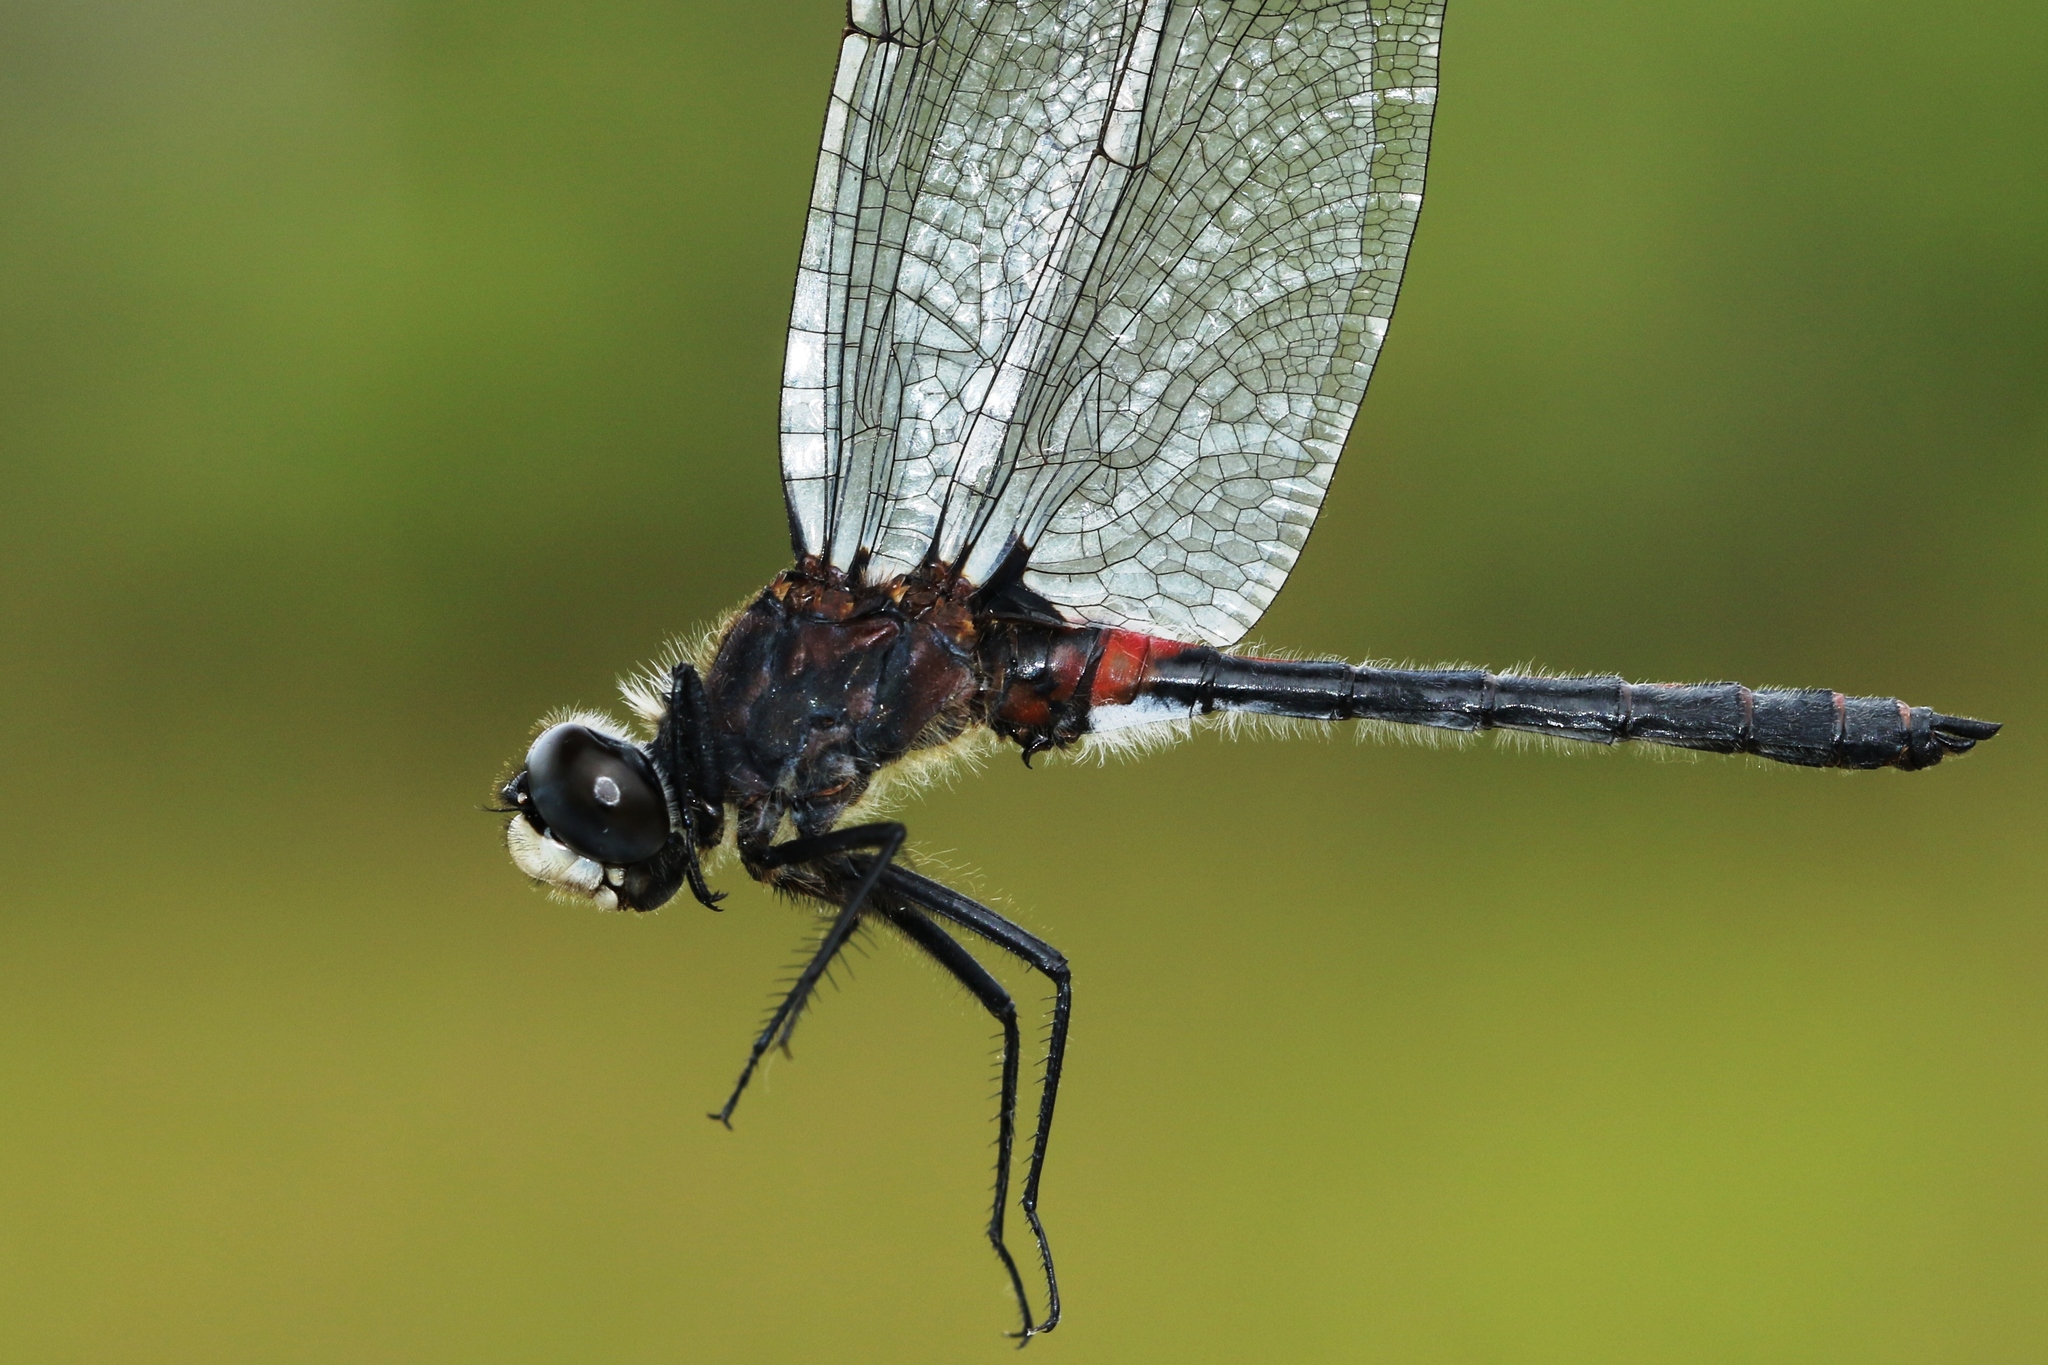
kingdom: Animalia
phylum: Arthropoda
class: Insecta
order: Odonata
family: Libellulidae
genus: Leucorrhinia
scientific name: Leucorrhinia proxima
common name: Belted whiteface
